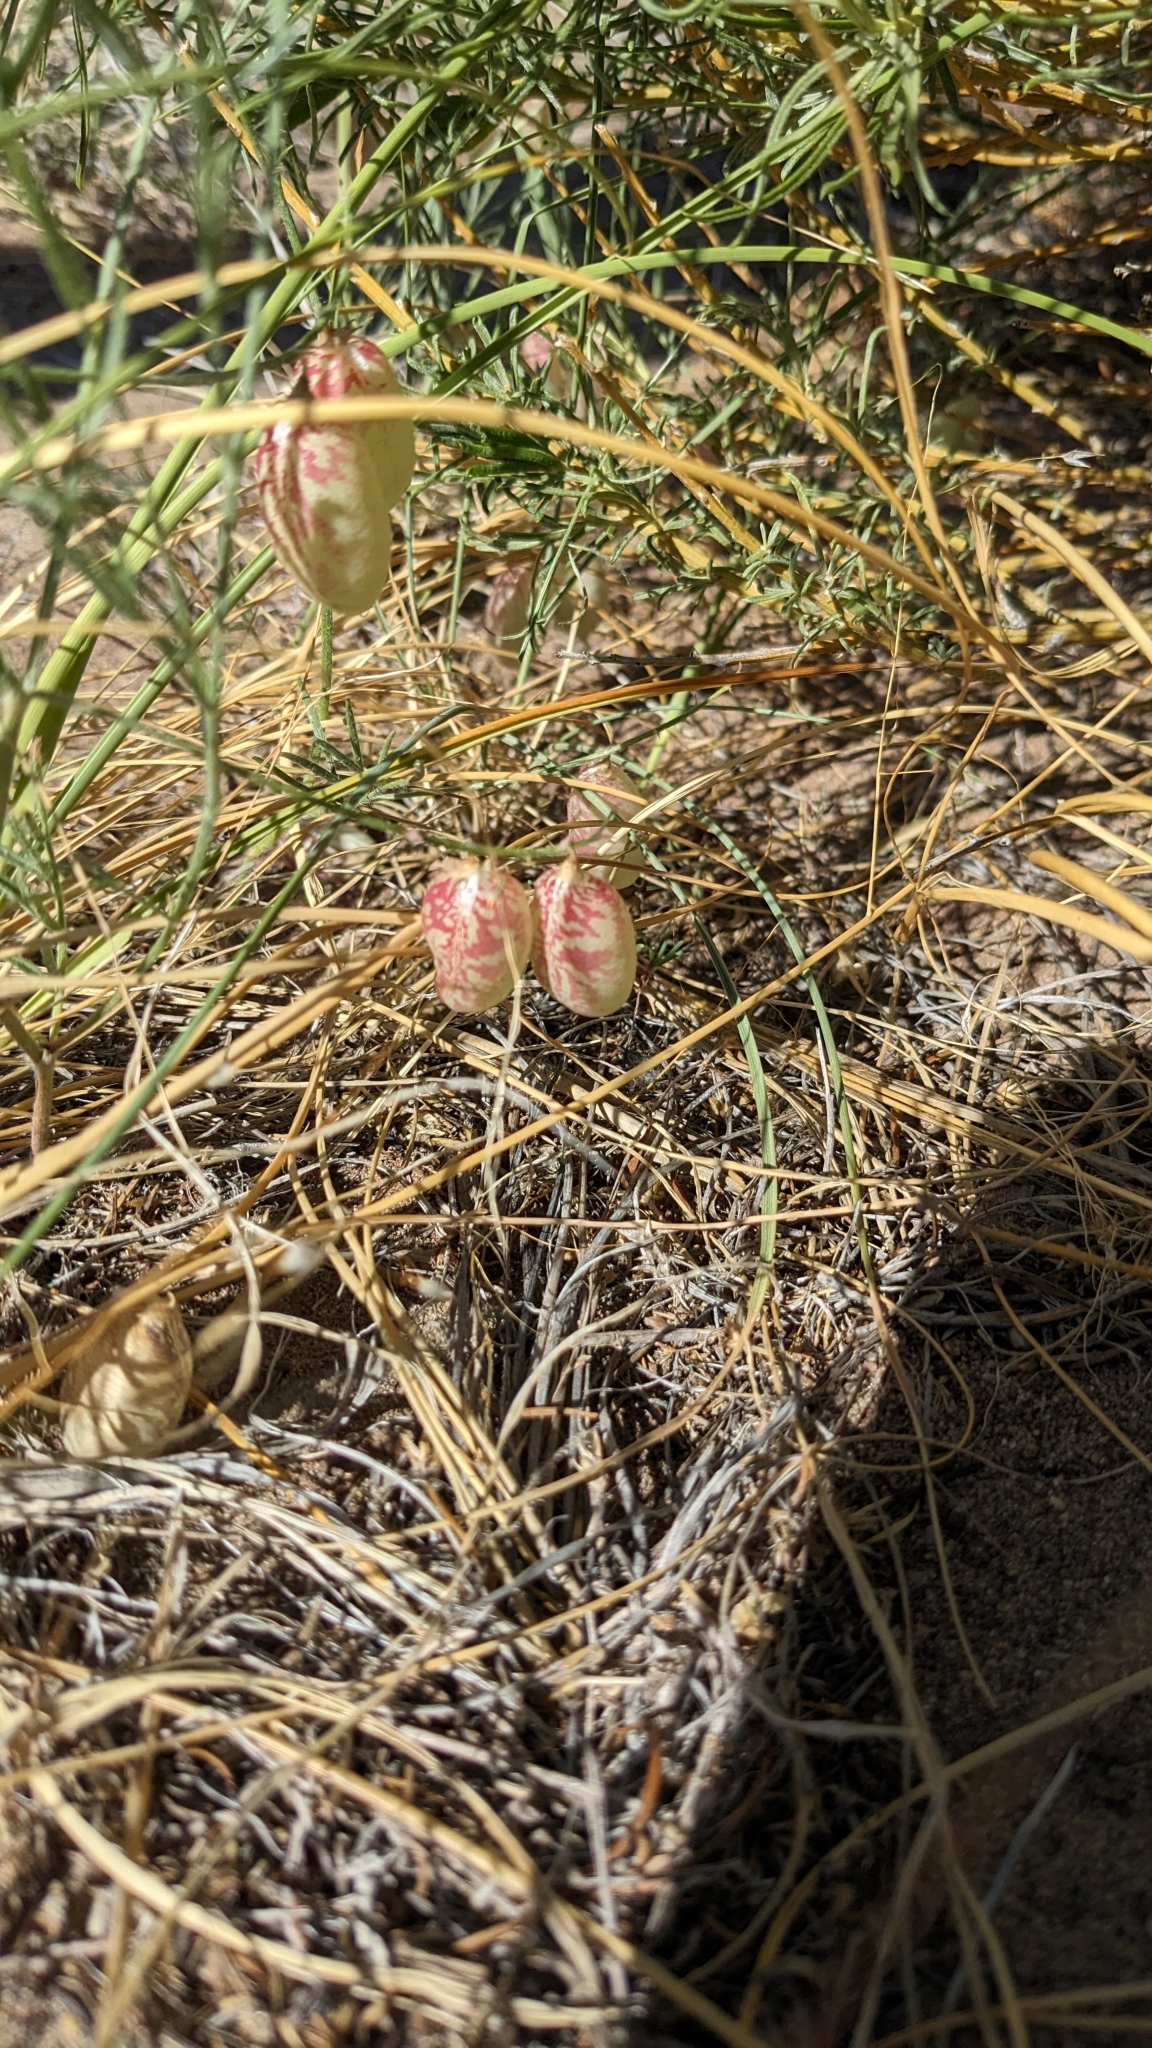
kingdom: Plantae
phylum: Tracheophyta
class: Magnoliopsida
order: Fabales
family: Fabaceae
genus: Astragalus
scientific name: Astragalus ceramicus
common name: Painted milk-vetch
